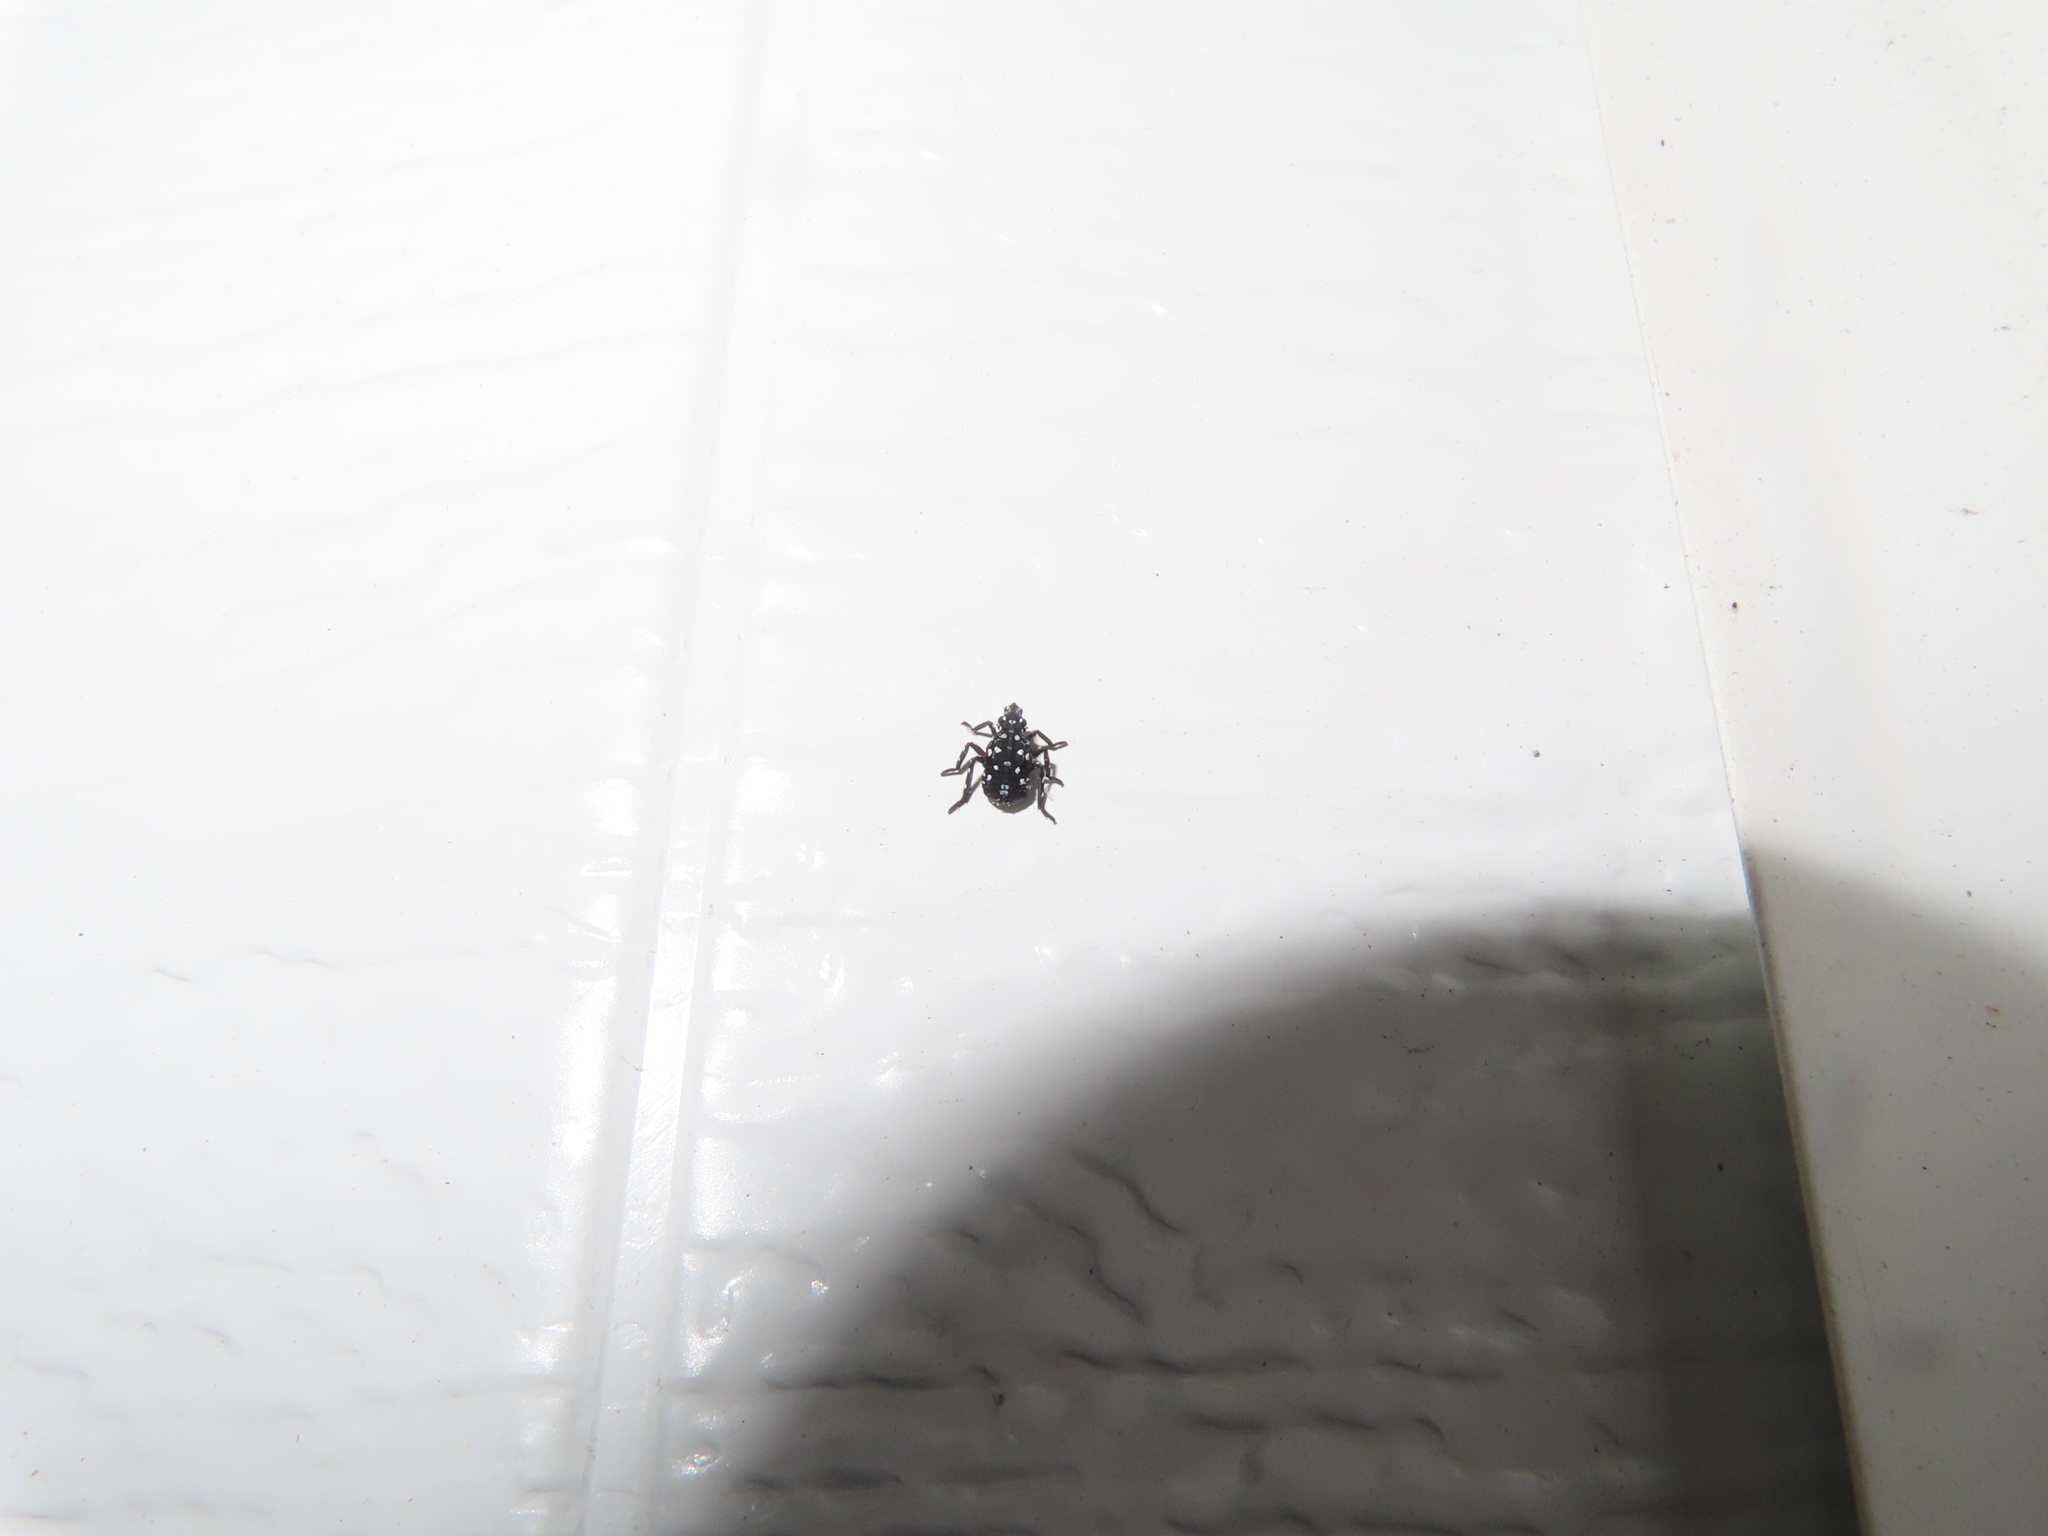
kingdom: Animalia
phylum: Arthropoda
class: Insecta
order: Hemiptera
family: Fulgoridae
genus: Lycorma
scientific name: Lycorma delicatula
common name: Spotted lanternfly
